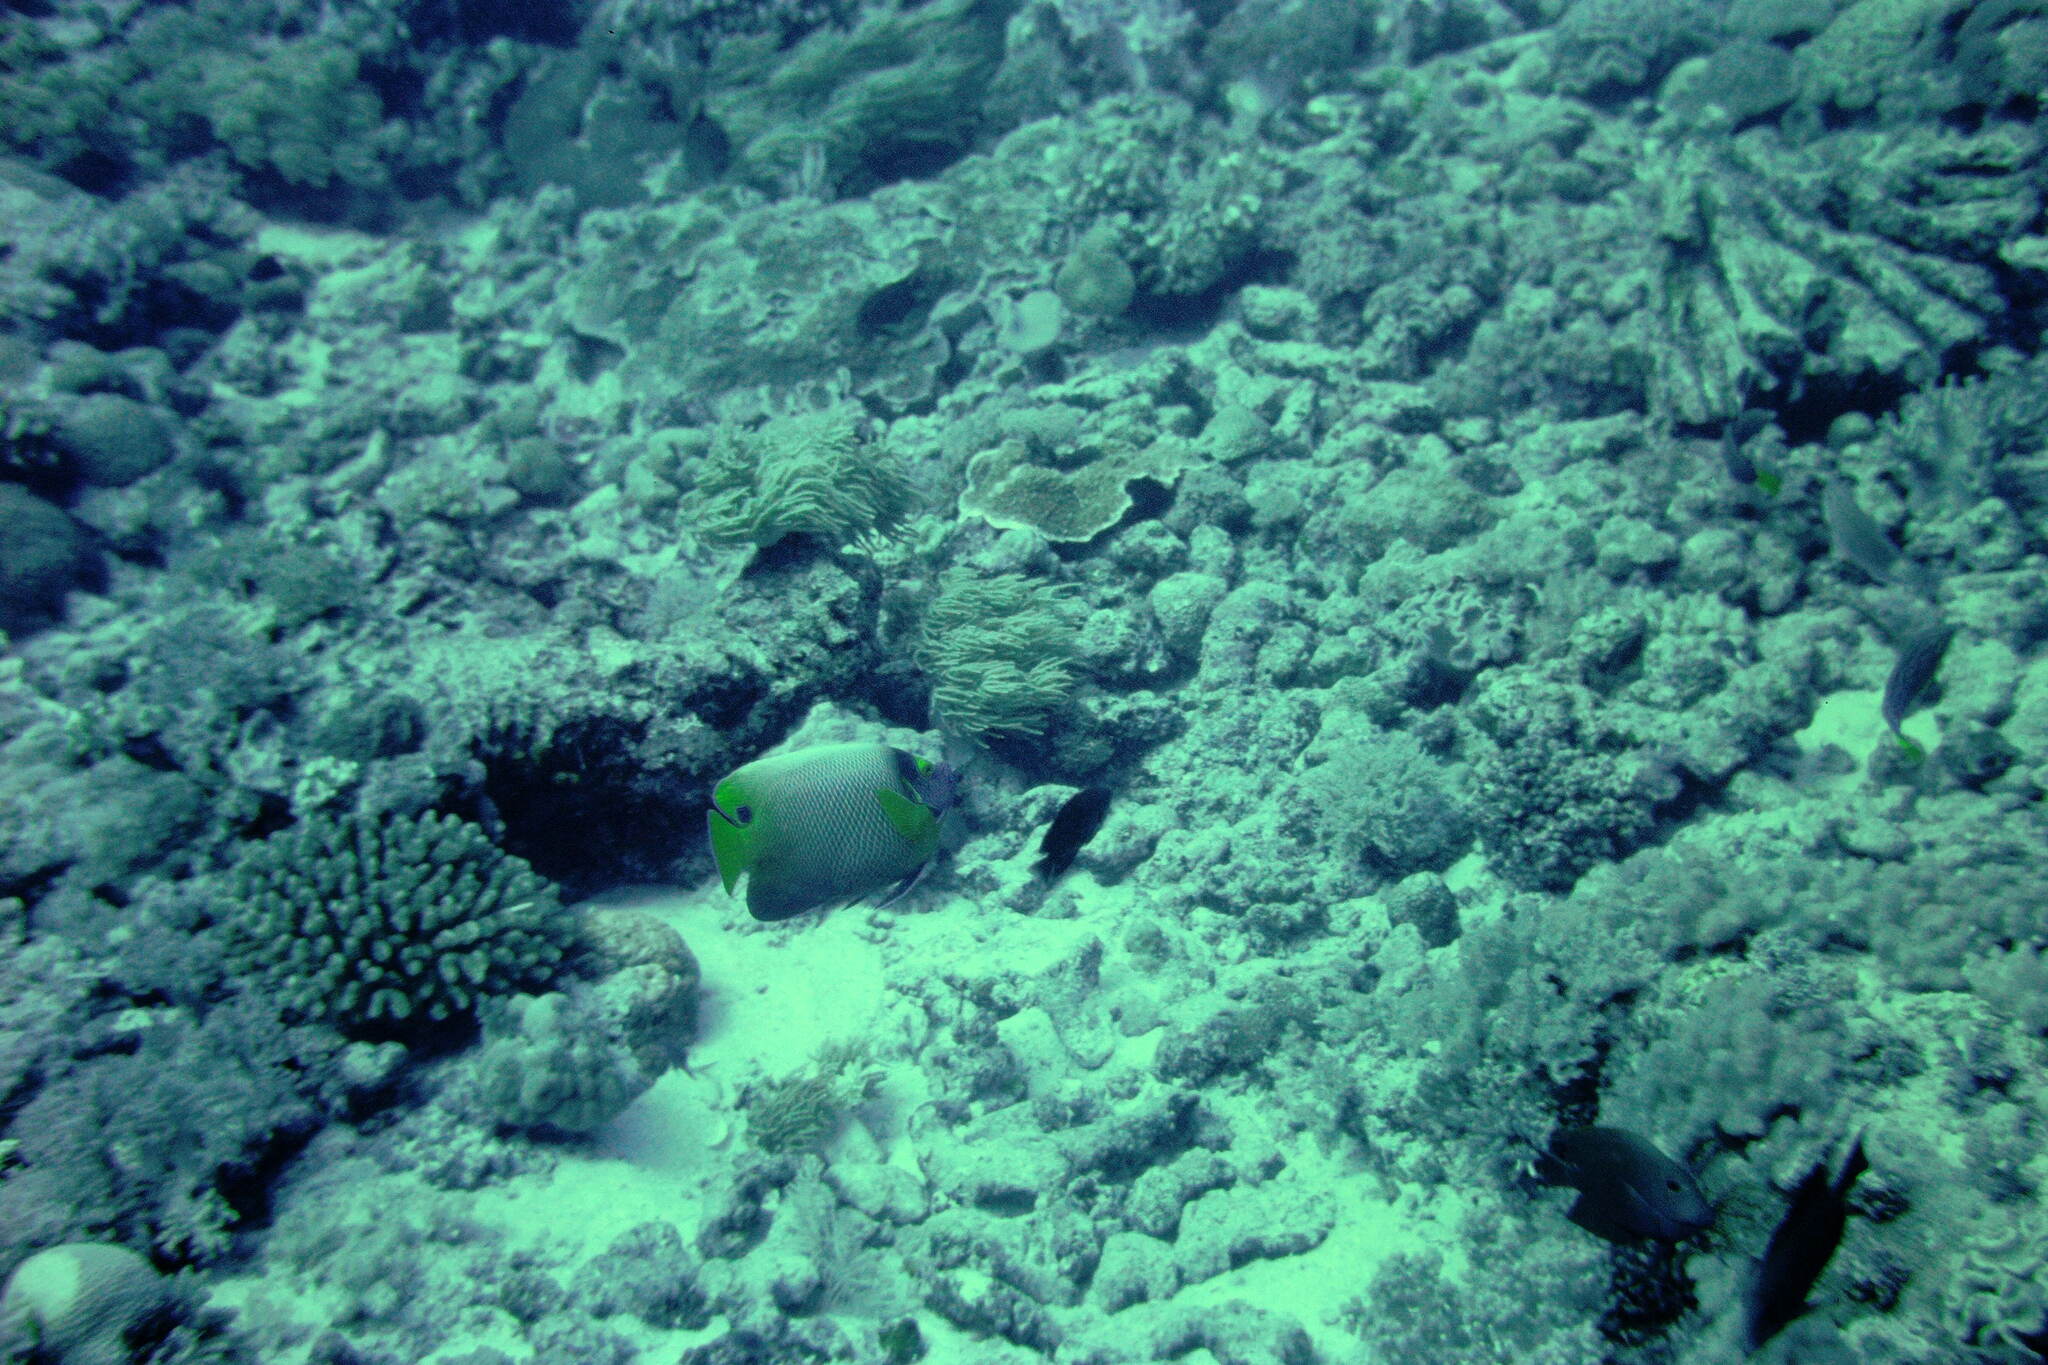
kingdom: Animalia
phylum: Chordata
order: Perciformes
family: Pomacanthidae
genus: Pomacanthus
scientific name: Pomacanthus xanthometopon
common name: Yellow-faced angelfish
